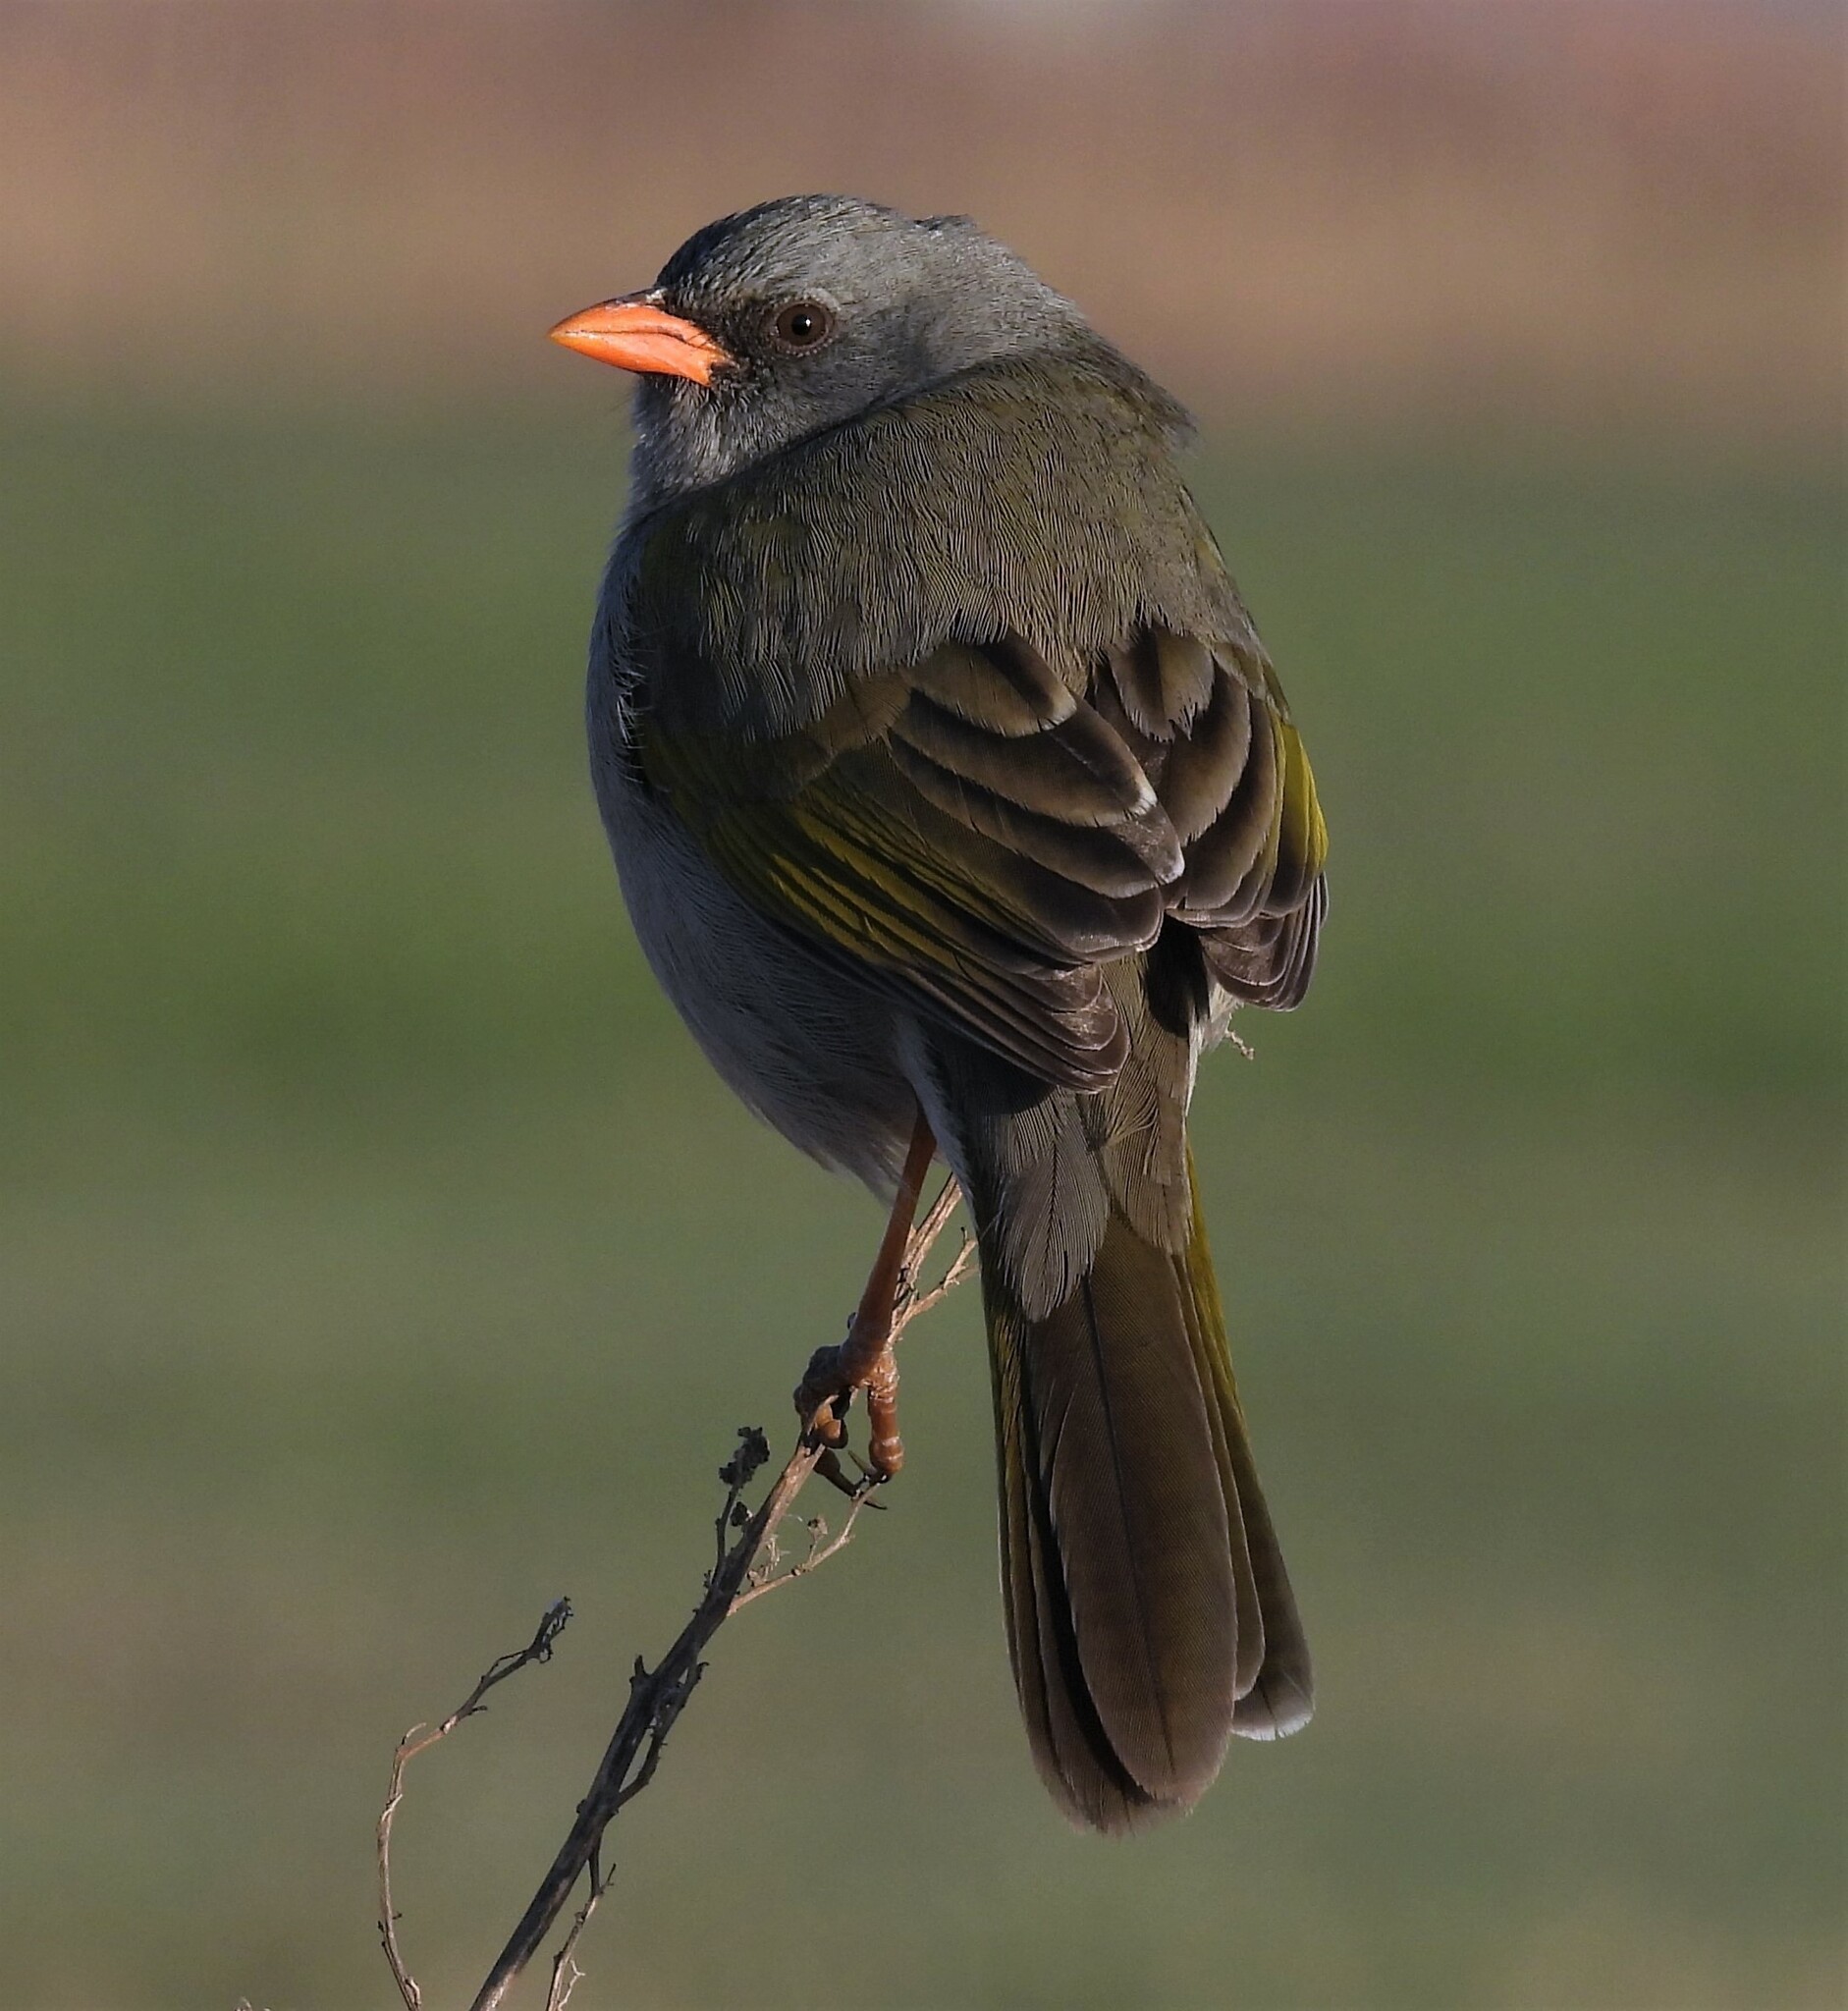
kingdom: Animalia
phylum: Chordata
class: Aves
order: Passeriformes
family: Thraupidae
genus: Embernagra
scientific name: Embernagra platensis
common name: Pampa finch
